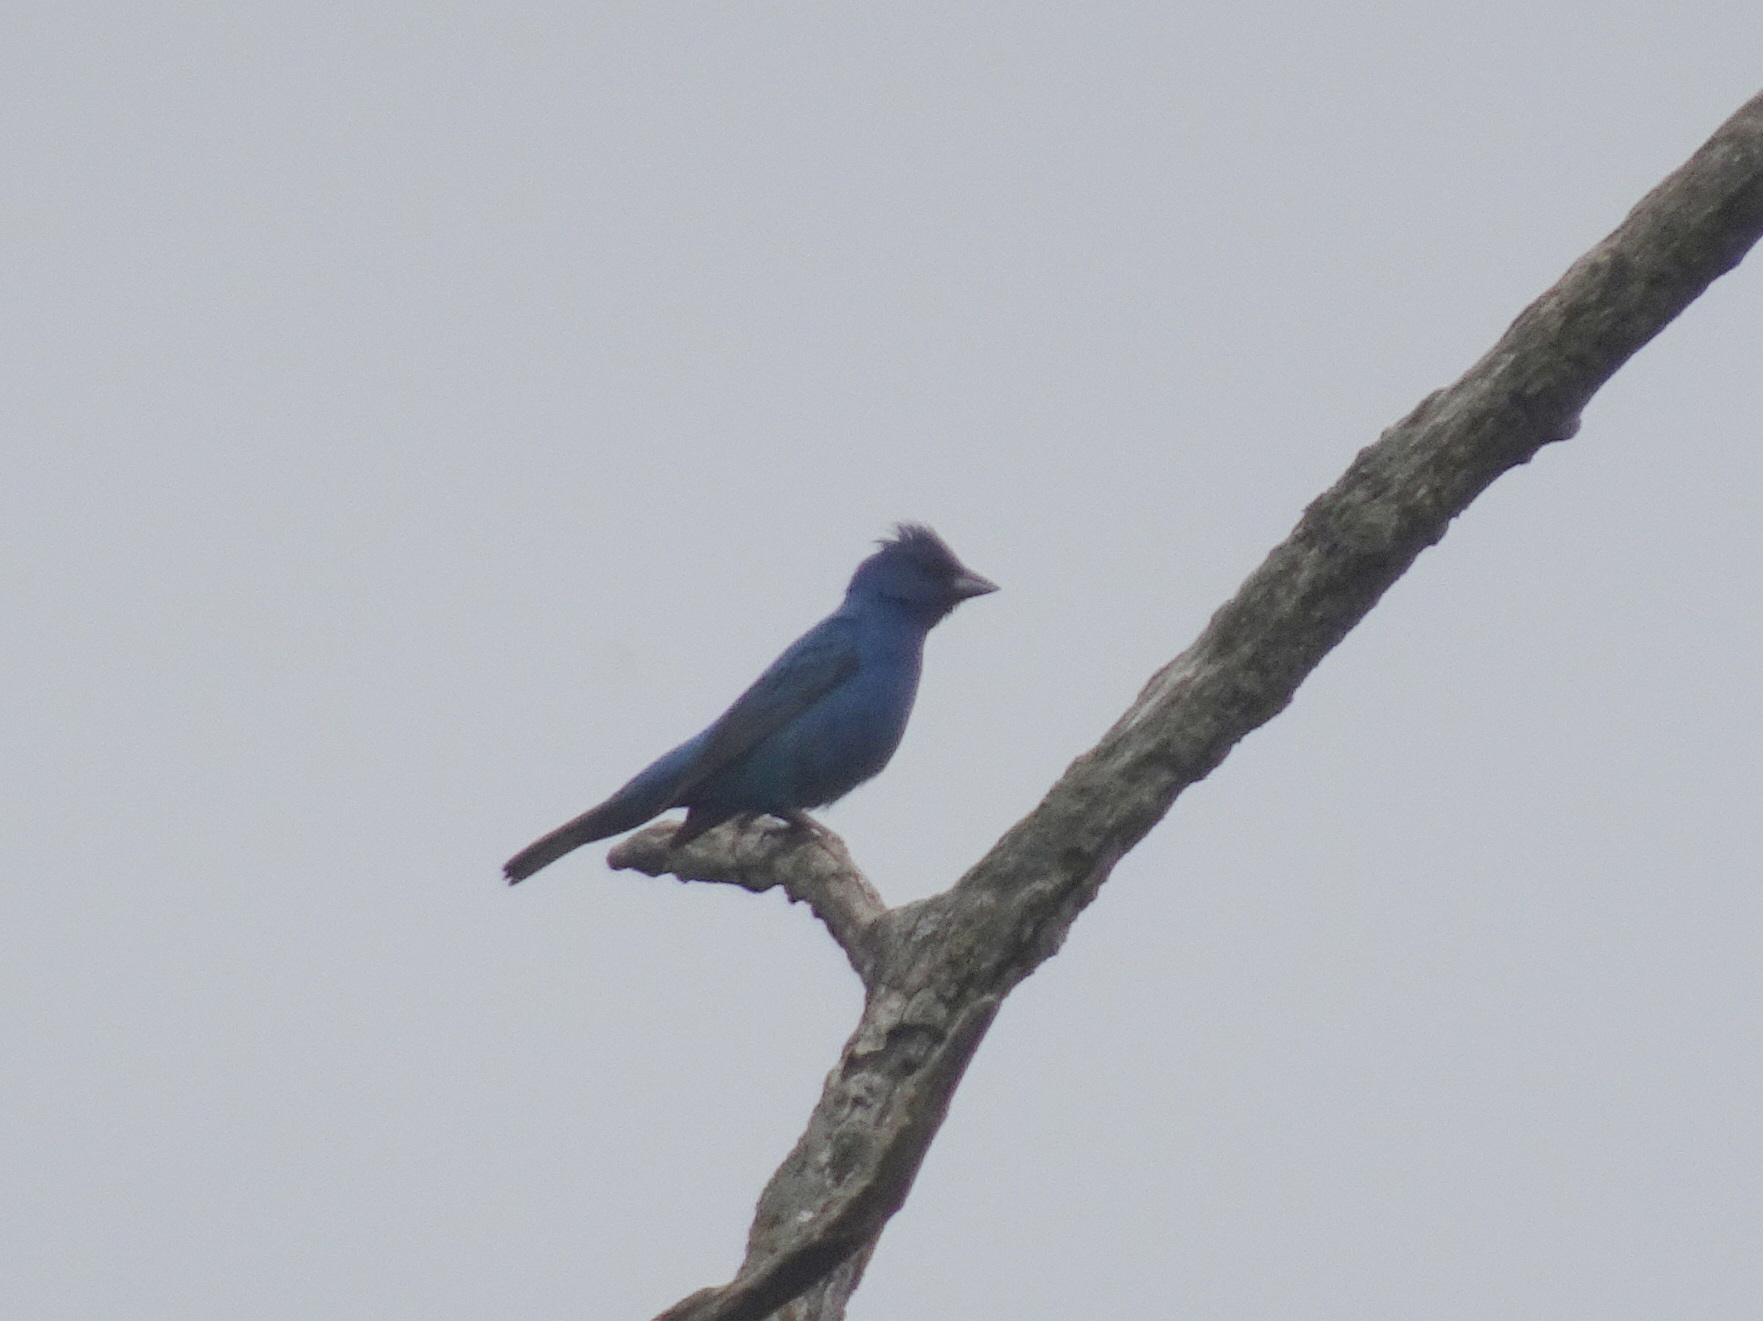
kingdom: Animalia
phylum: Chordata
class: Aves
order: Passeriformes
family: Cardinalidae
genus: Passerina
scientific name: Passerina cyanea
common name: Indigo bunting
